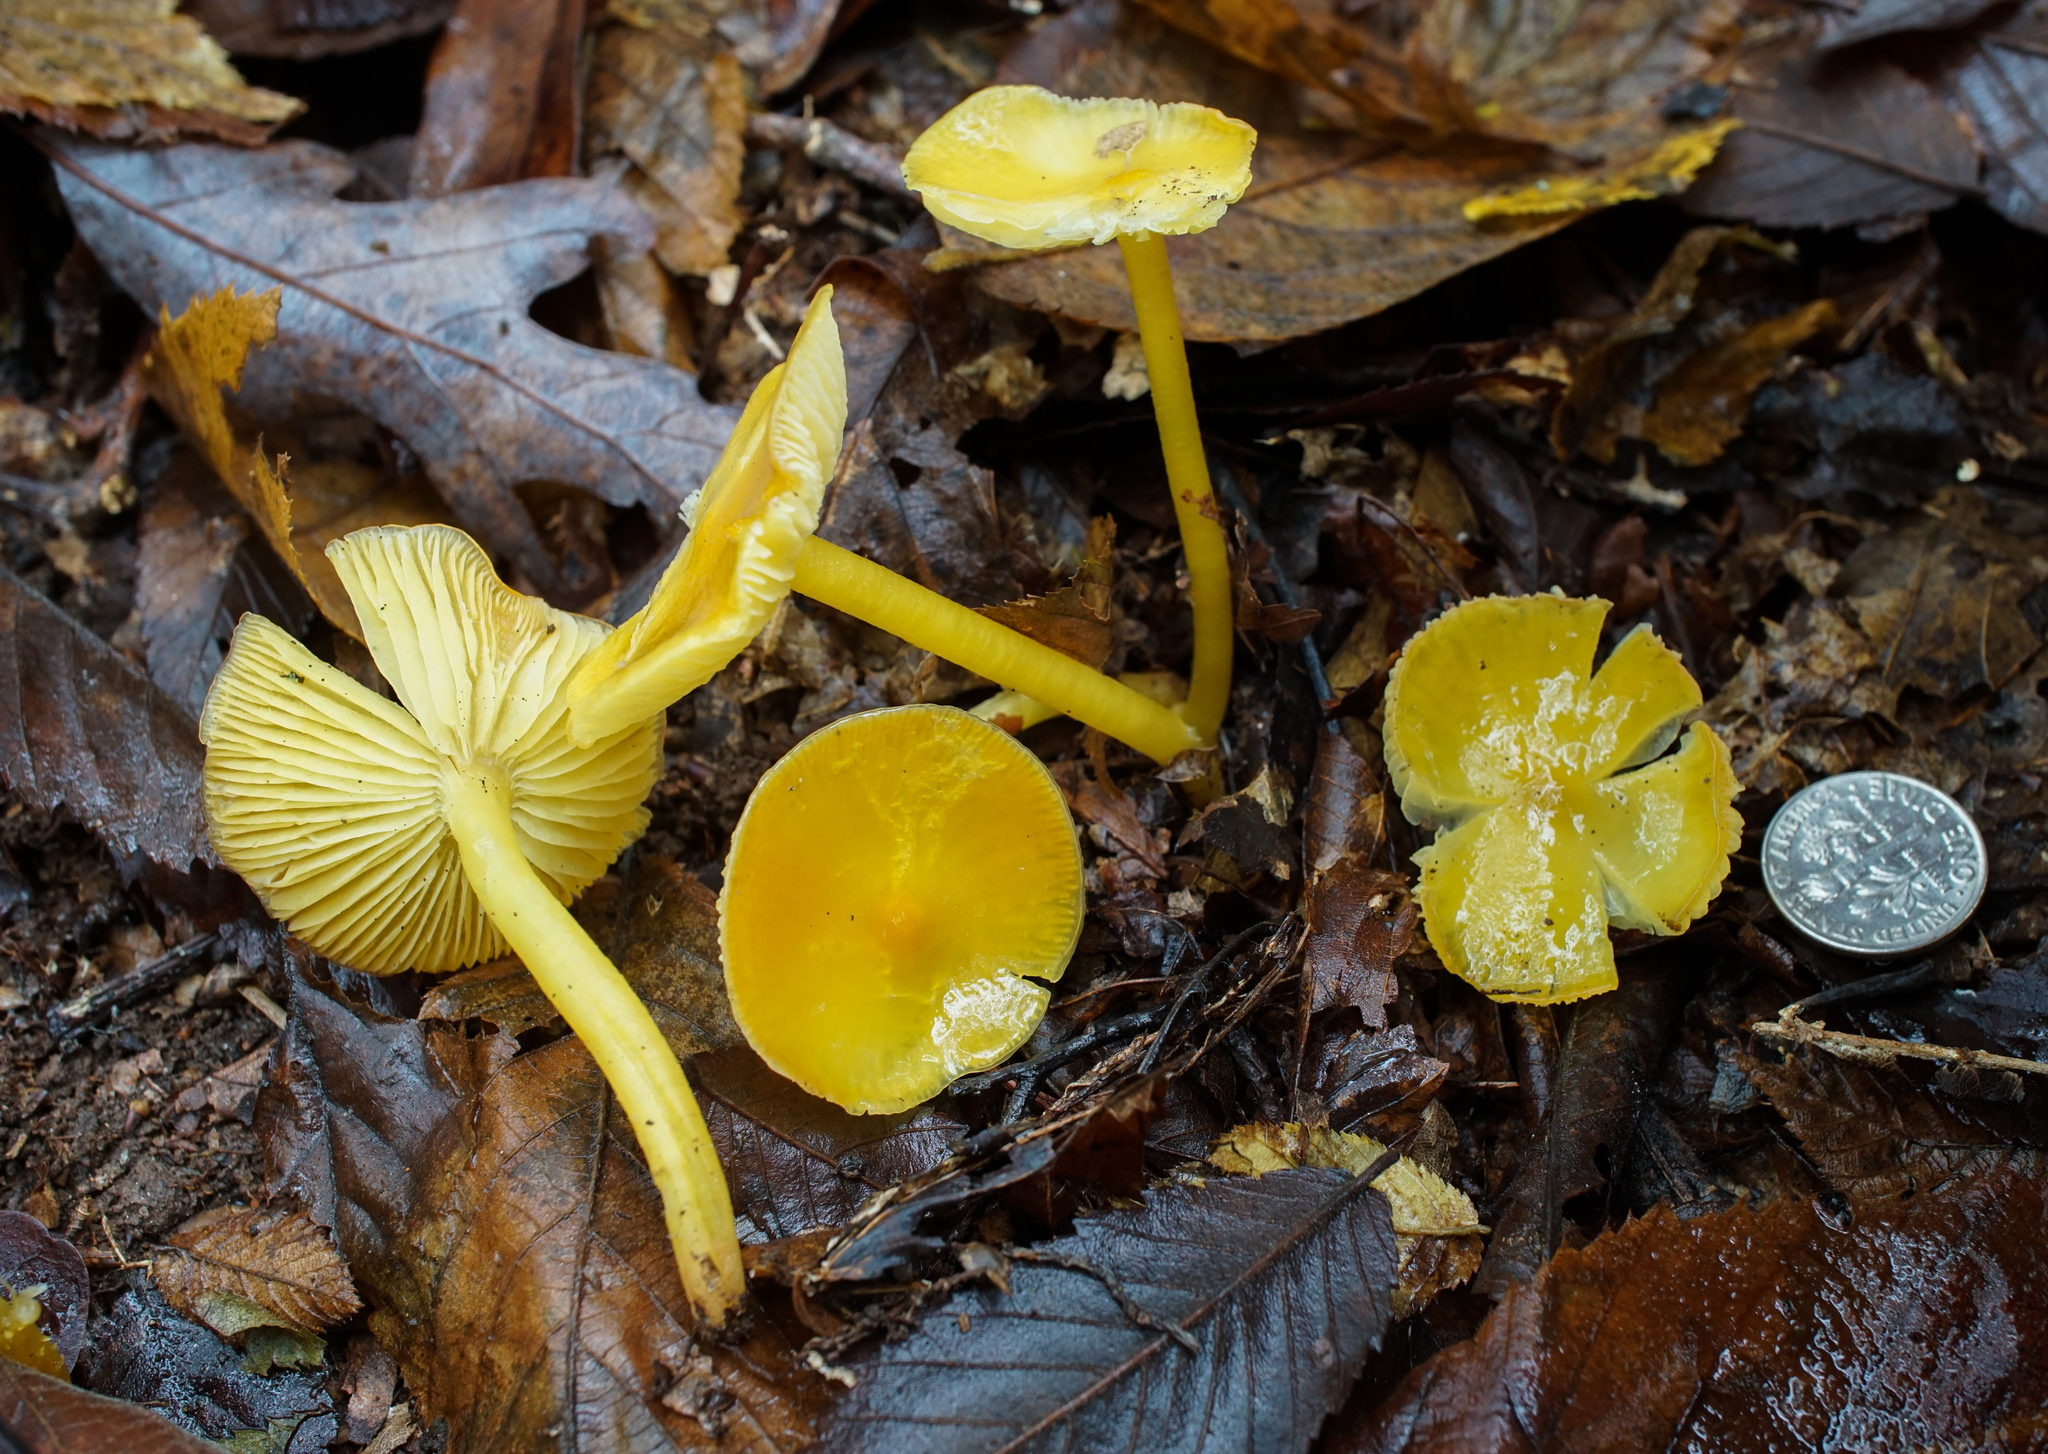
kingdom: Fungi
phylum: Basidiomycota
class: Agaricomycetes
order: Agaricales
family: Hygrophoraceae
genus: Hygrocybe
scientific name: Hygrocybe flavescens
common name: Golden waxy cap
